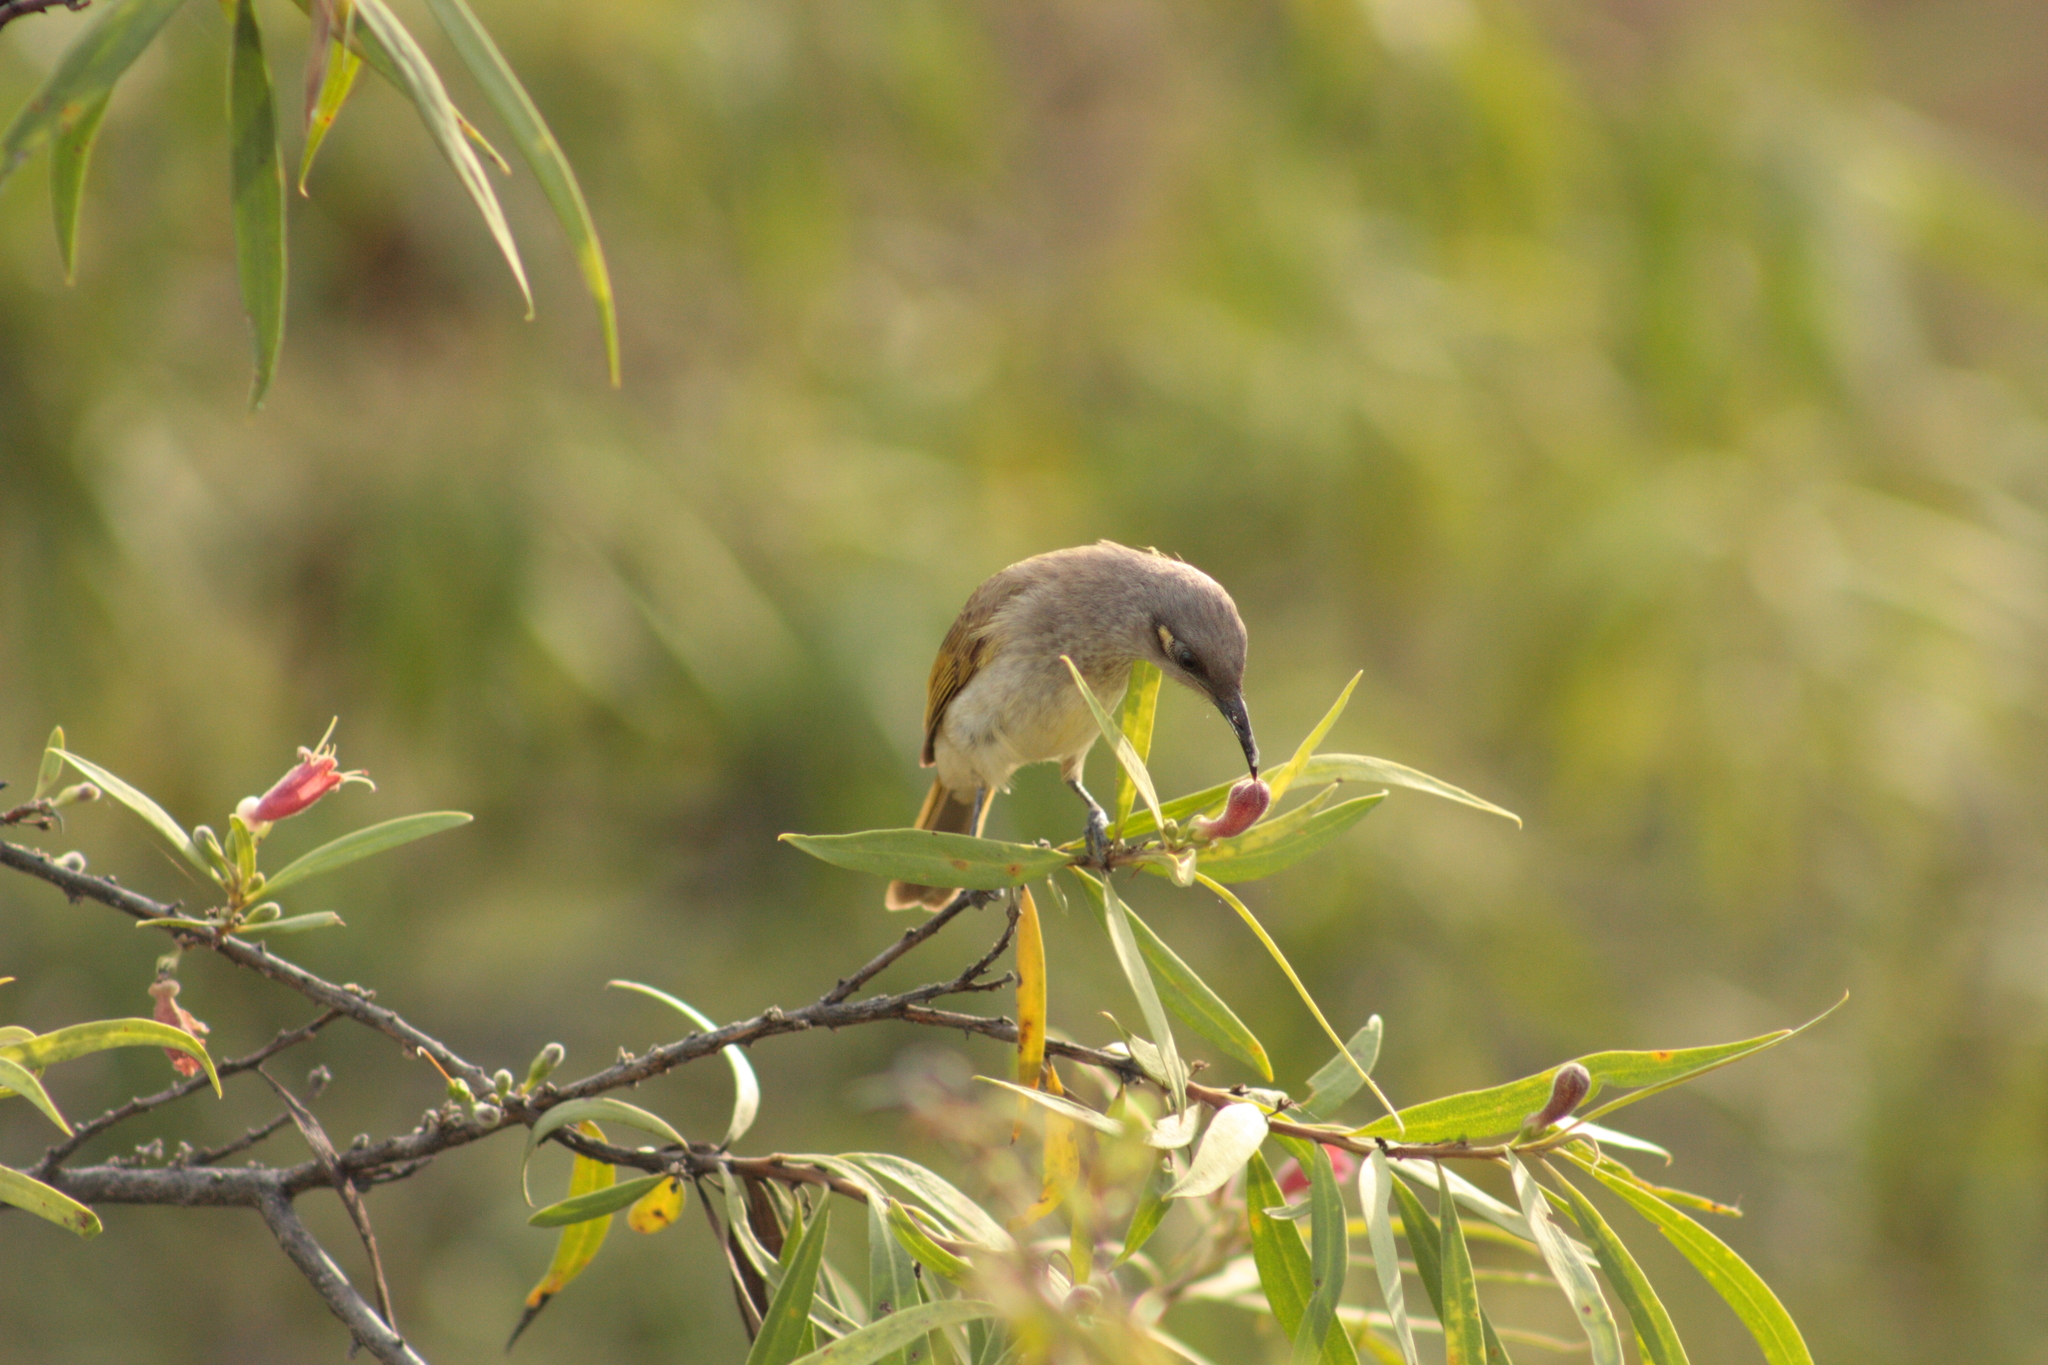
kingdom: Animalia
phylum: Chordata
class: Aves
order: Passeriformes
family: Meliphagidae
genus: Lichmera
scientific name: Lichmera indistincta
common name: Brown honeyeater
